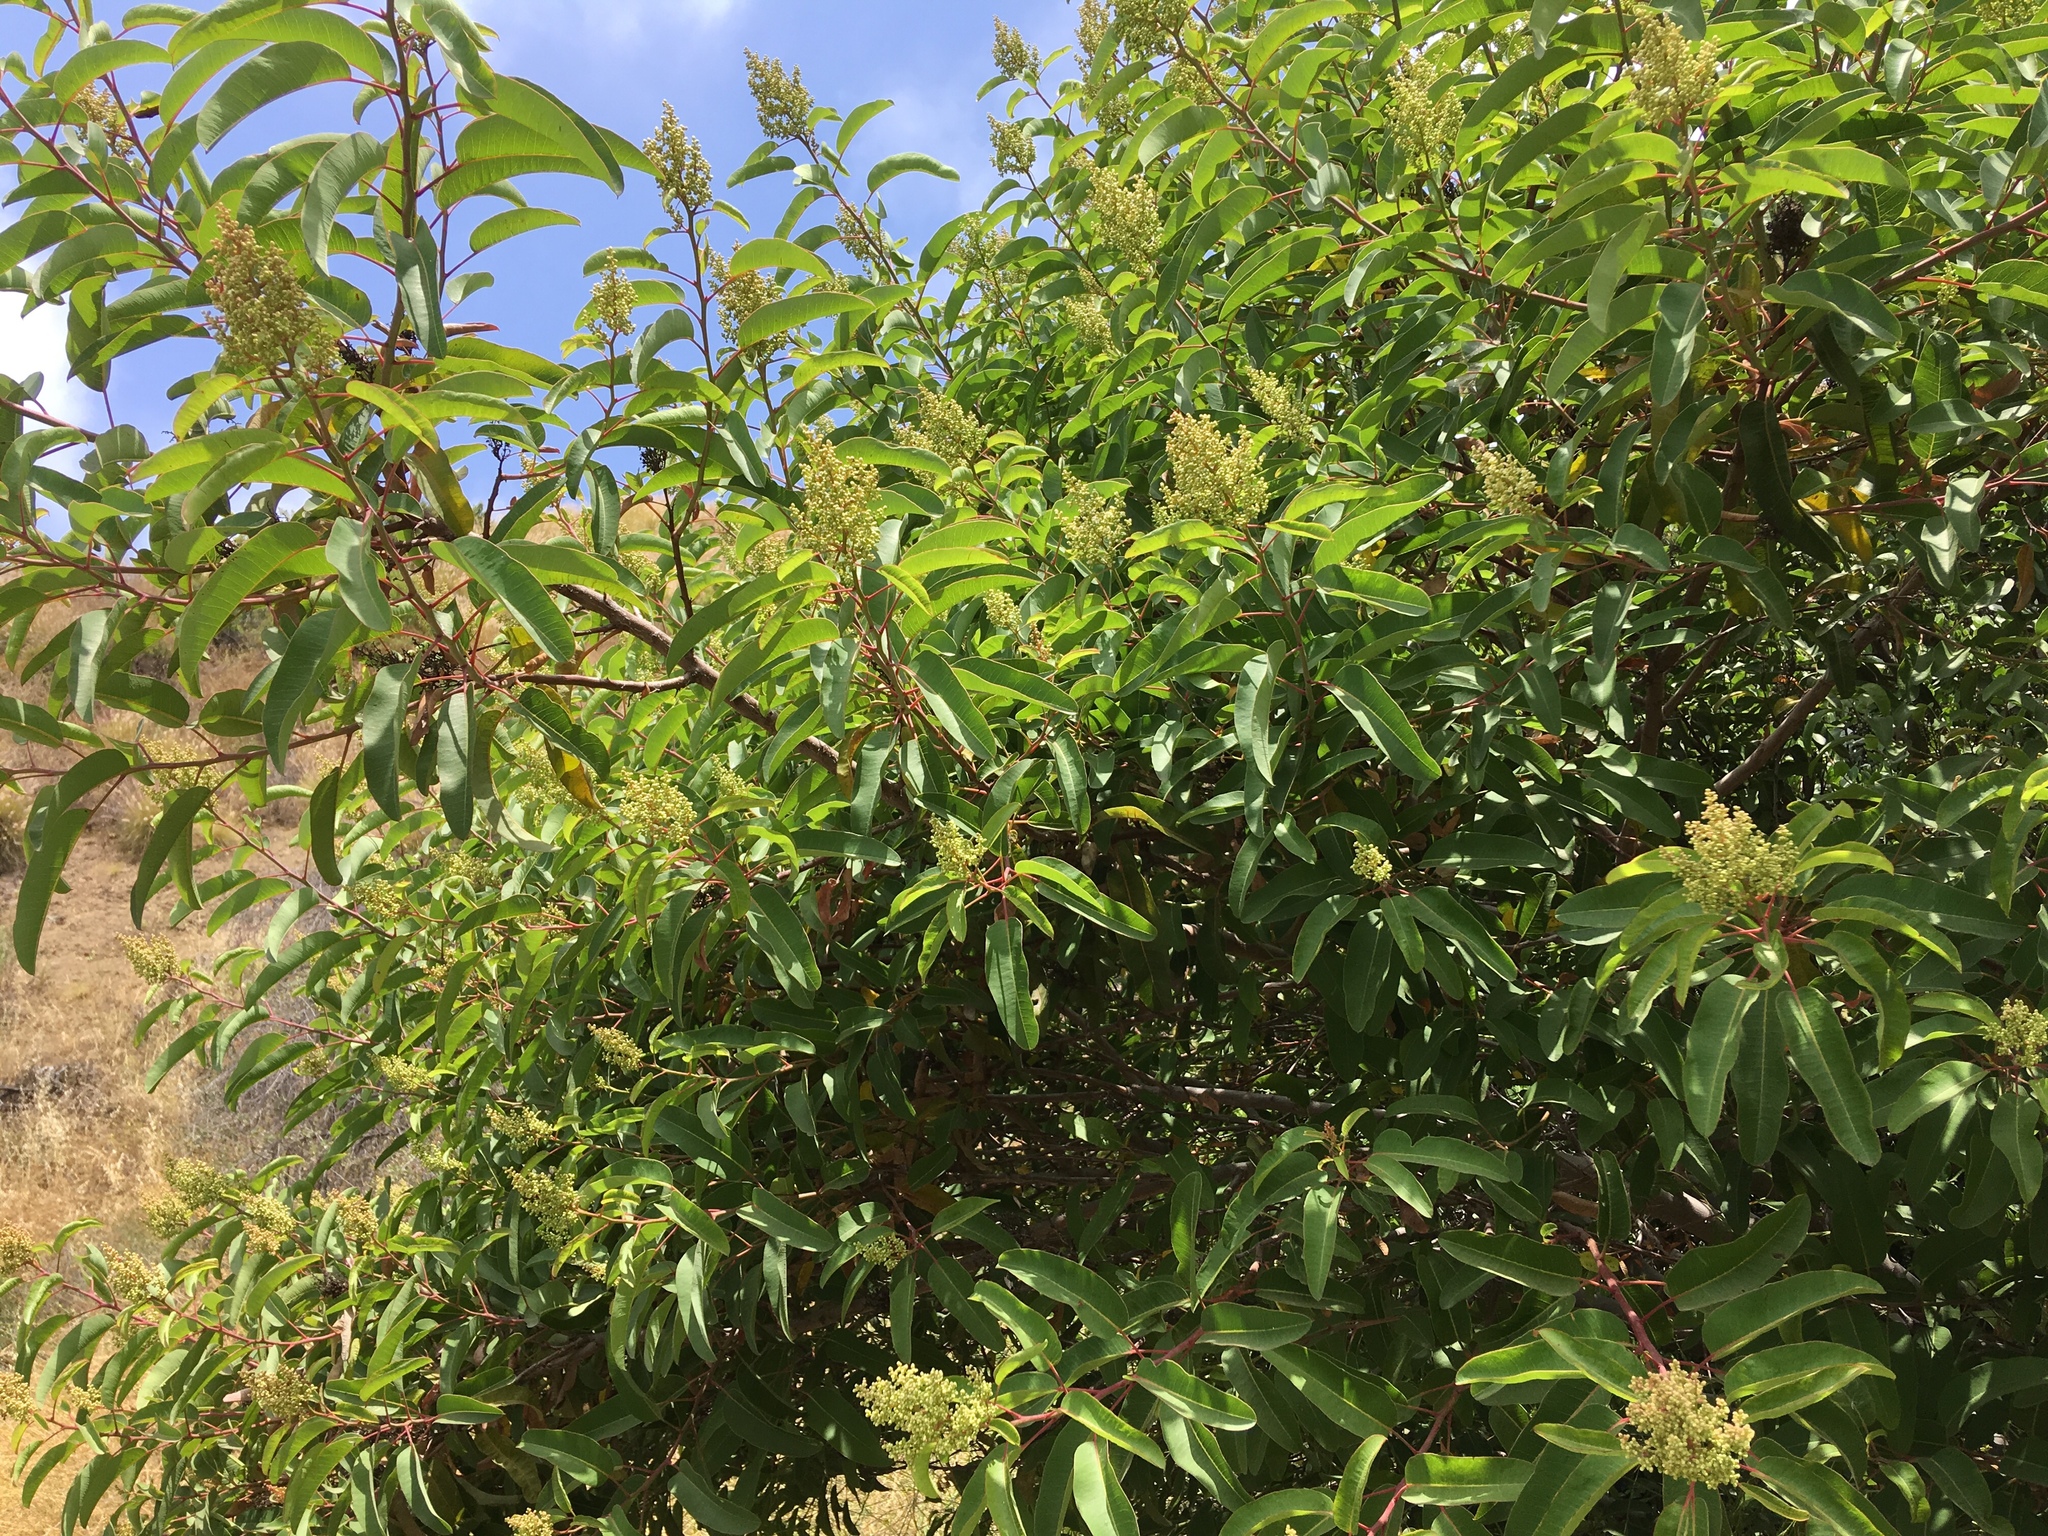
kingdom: Plantae
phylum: Tracheophyta
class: Magnoliopsida
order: Sapindales
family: Anacardiaceae
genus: Malosma
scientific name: Malosma laurina
